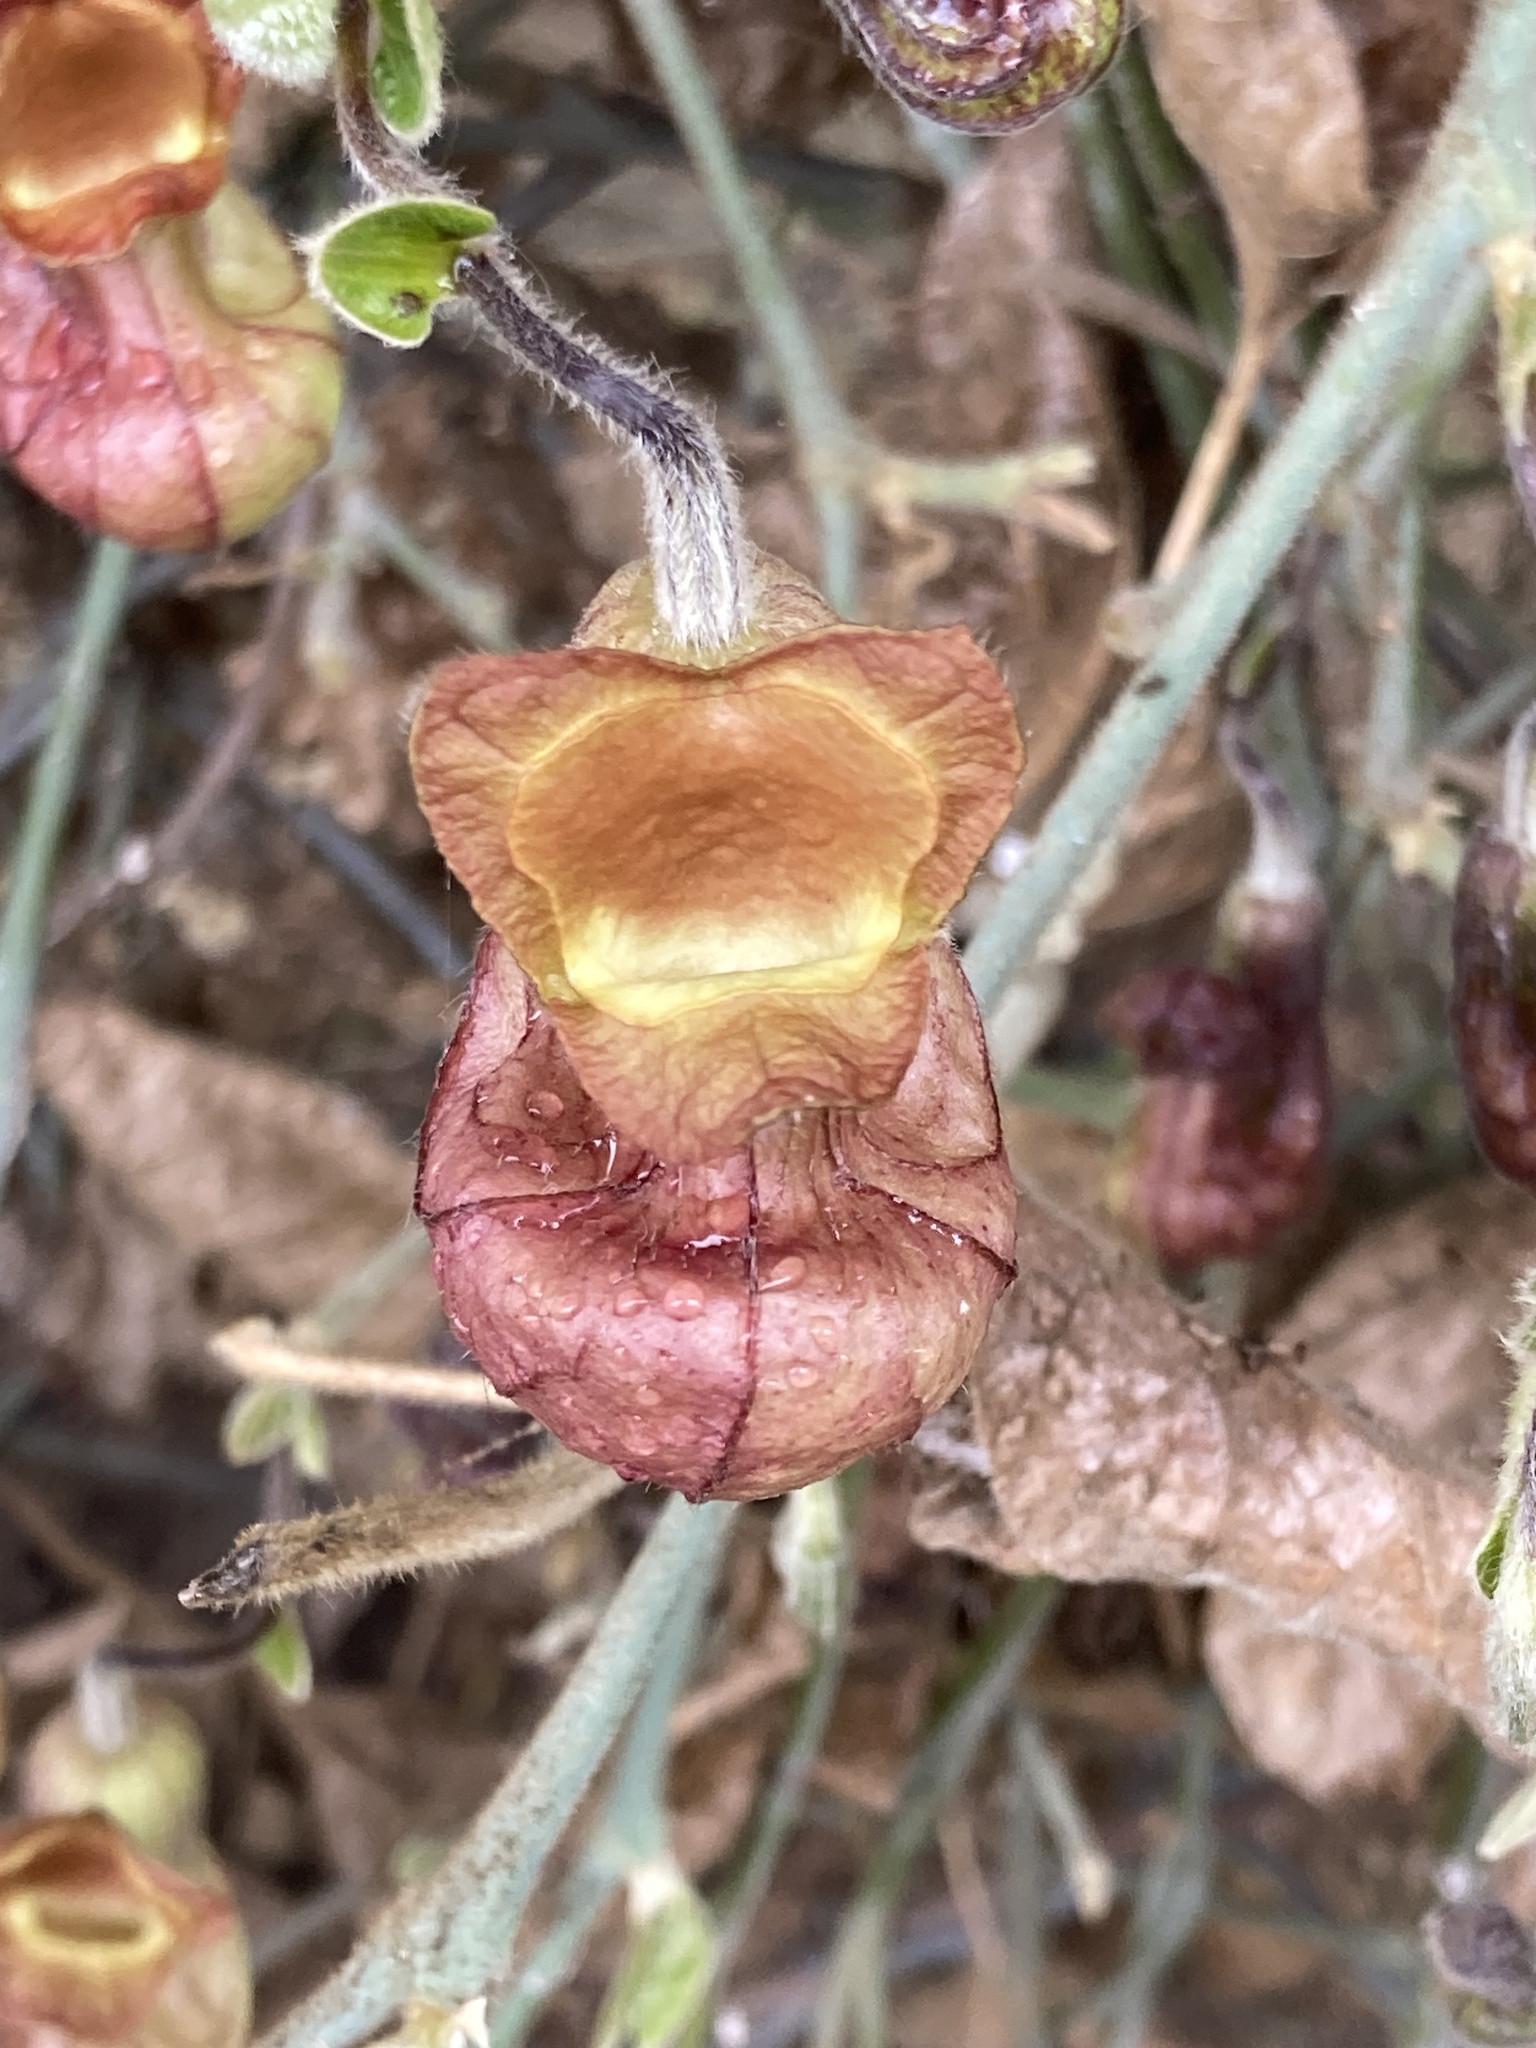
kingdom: Plantae
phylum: Tracheophyta
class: Magnoliopsida
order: Piperales
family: Aristolochiaceae
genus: Isotrema
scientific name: Isotrema californicum
